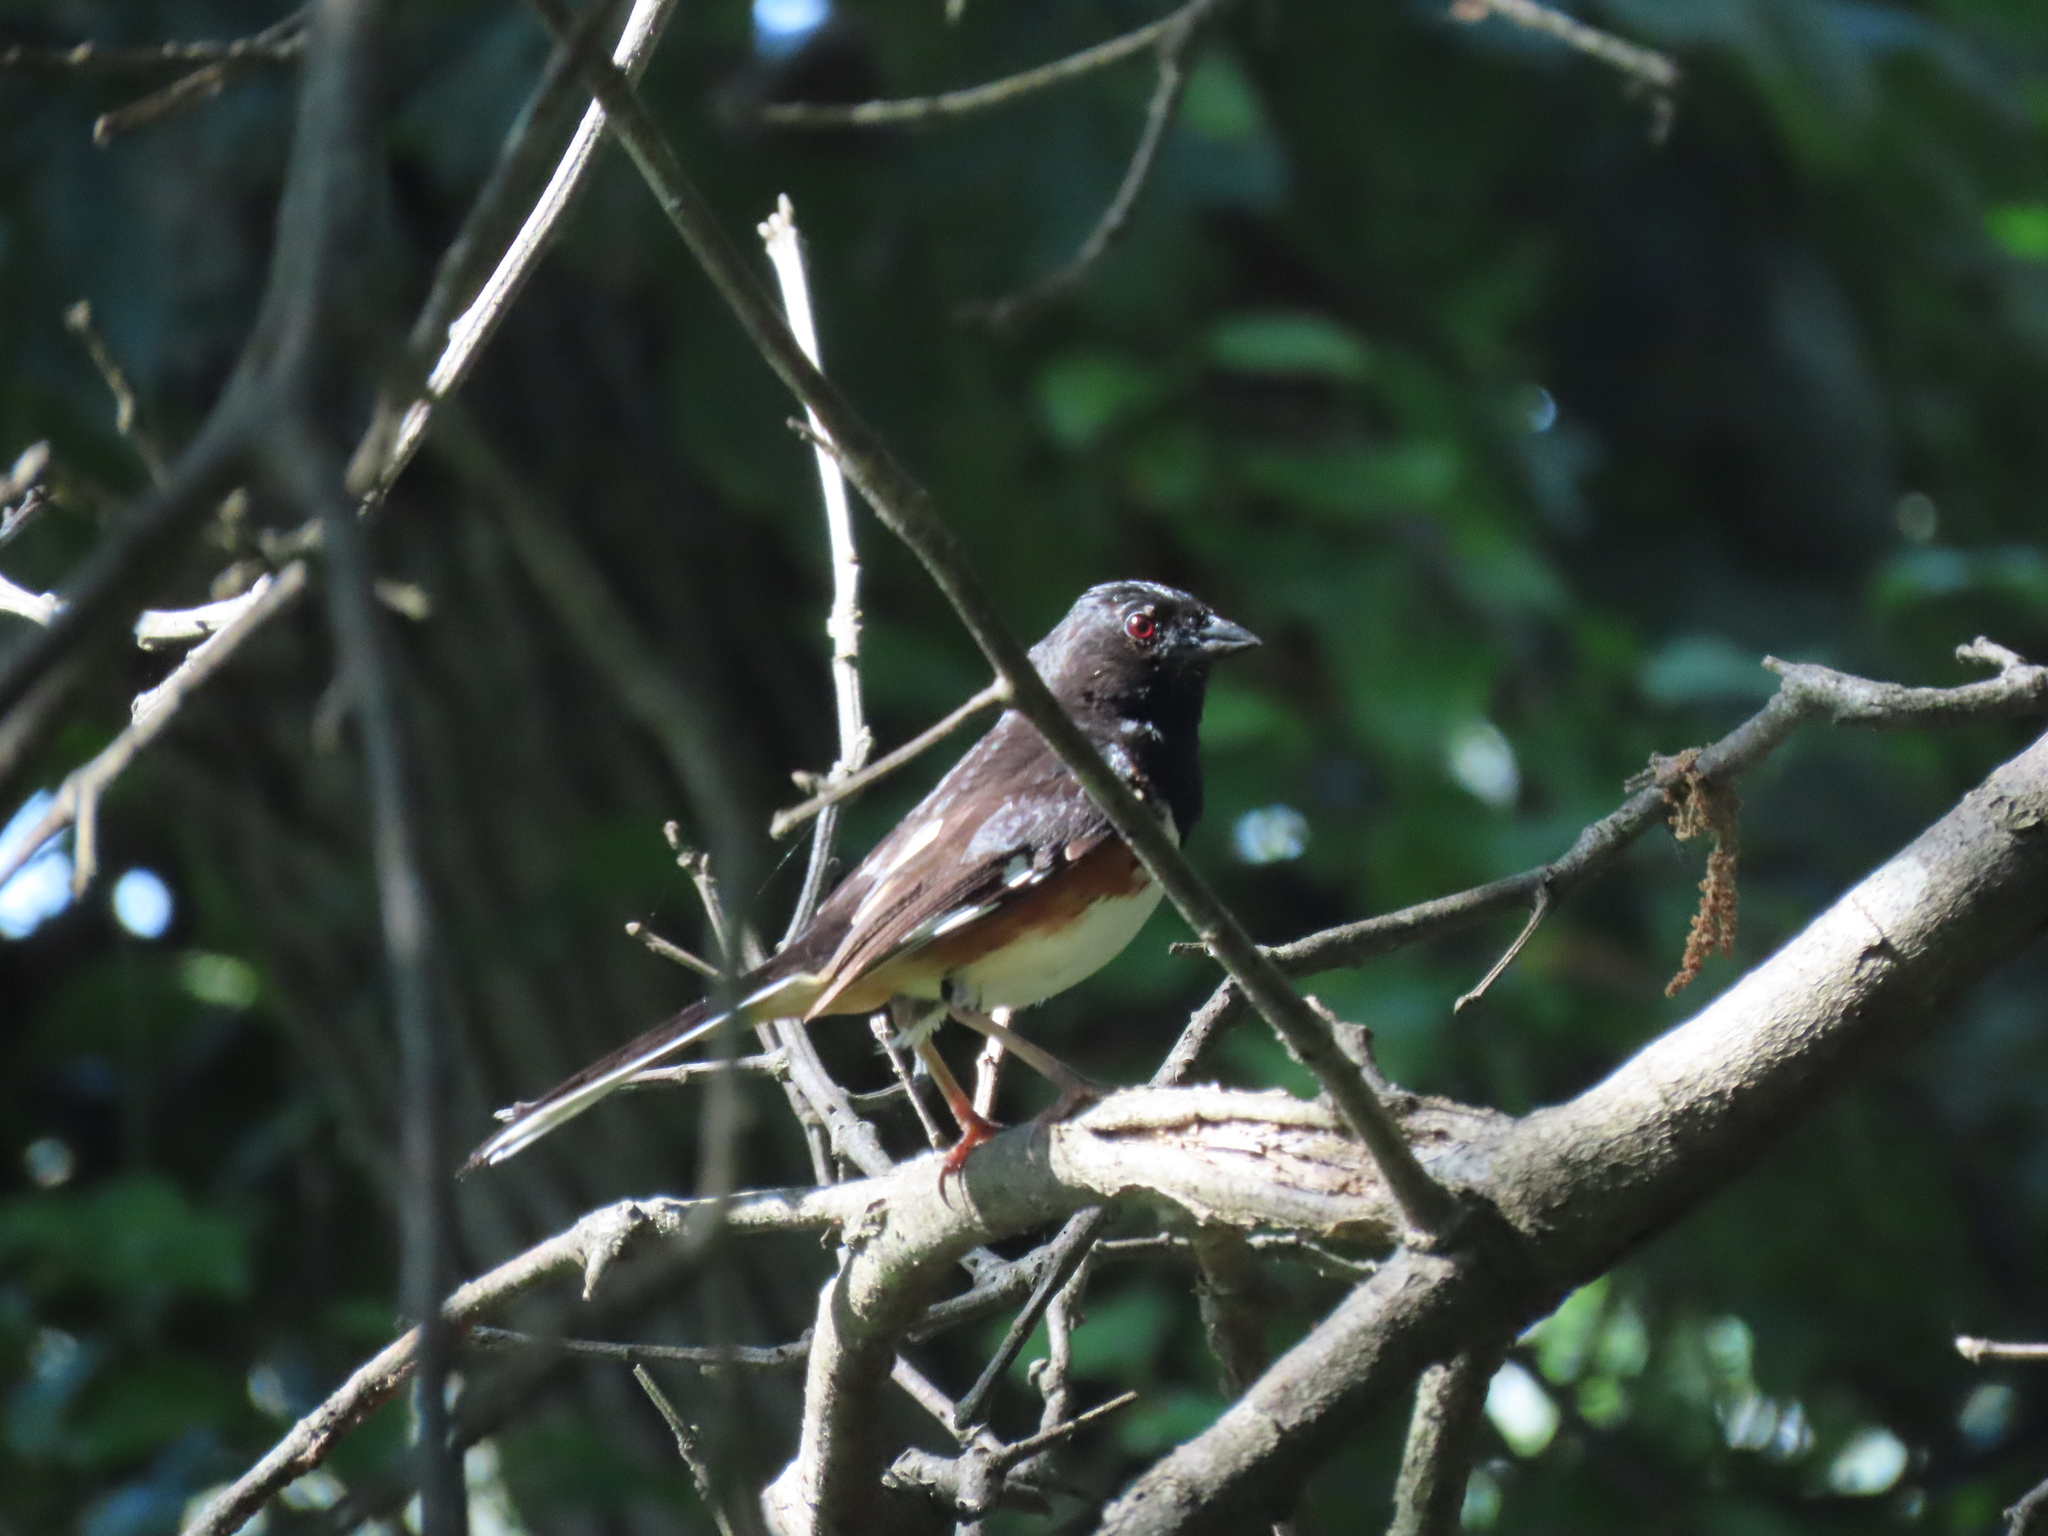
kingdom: Animalia
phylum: Chordata
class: Aves
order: Passeriformes
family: Passerellidae
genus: Pipilo
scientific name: Pipilo erythrophthalmus
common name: Eastern towhee
